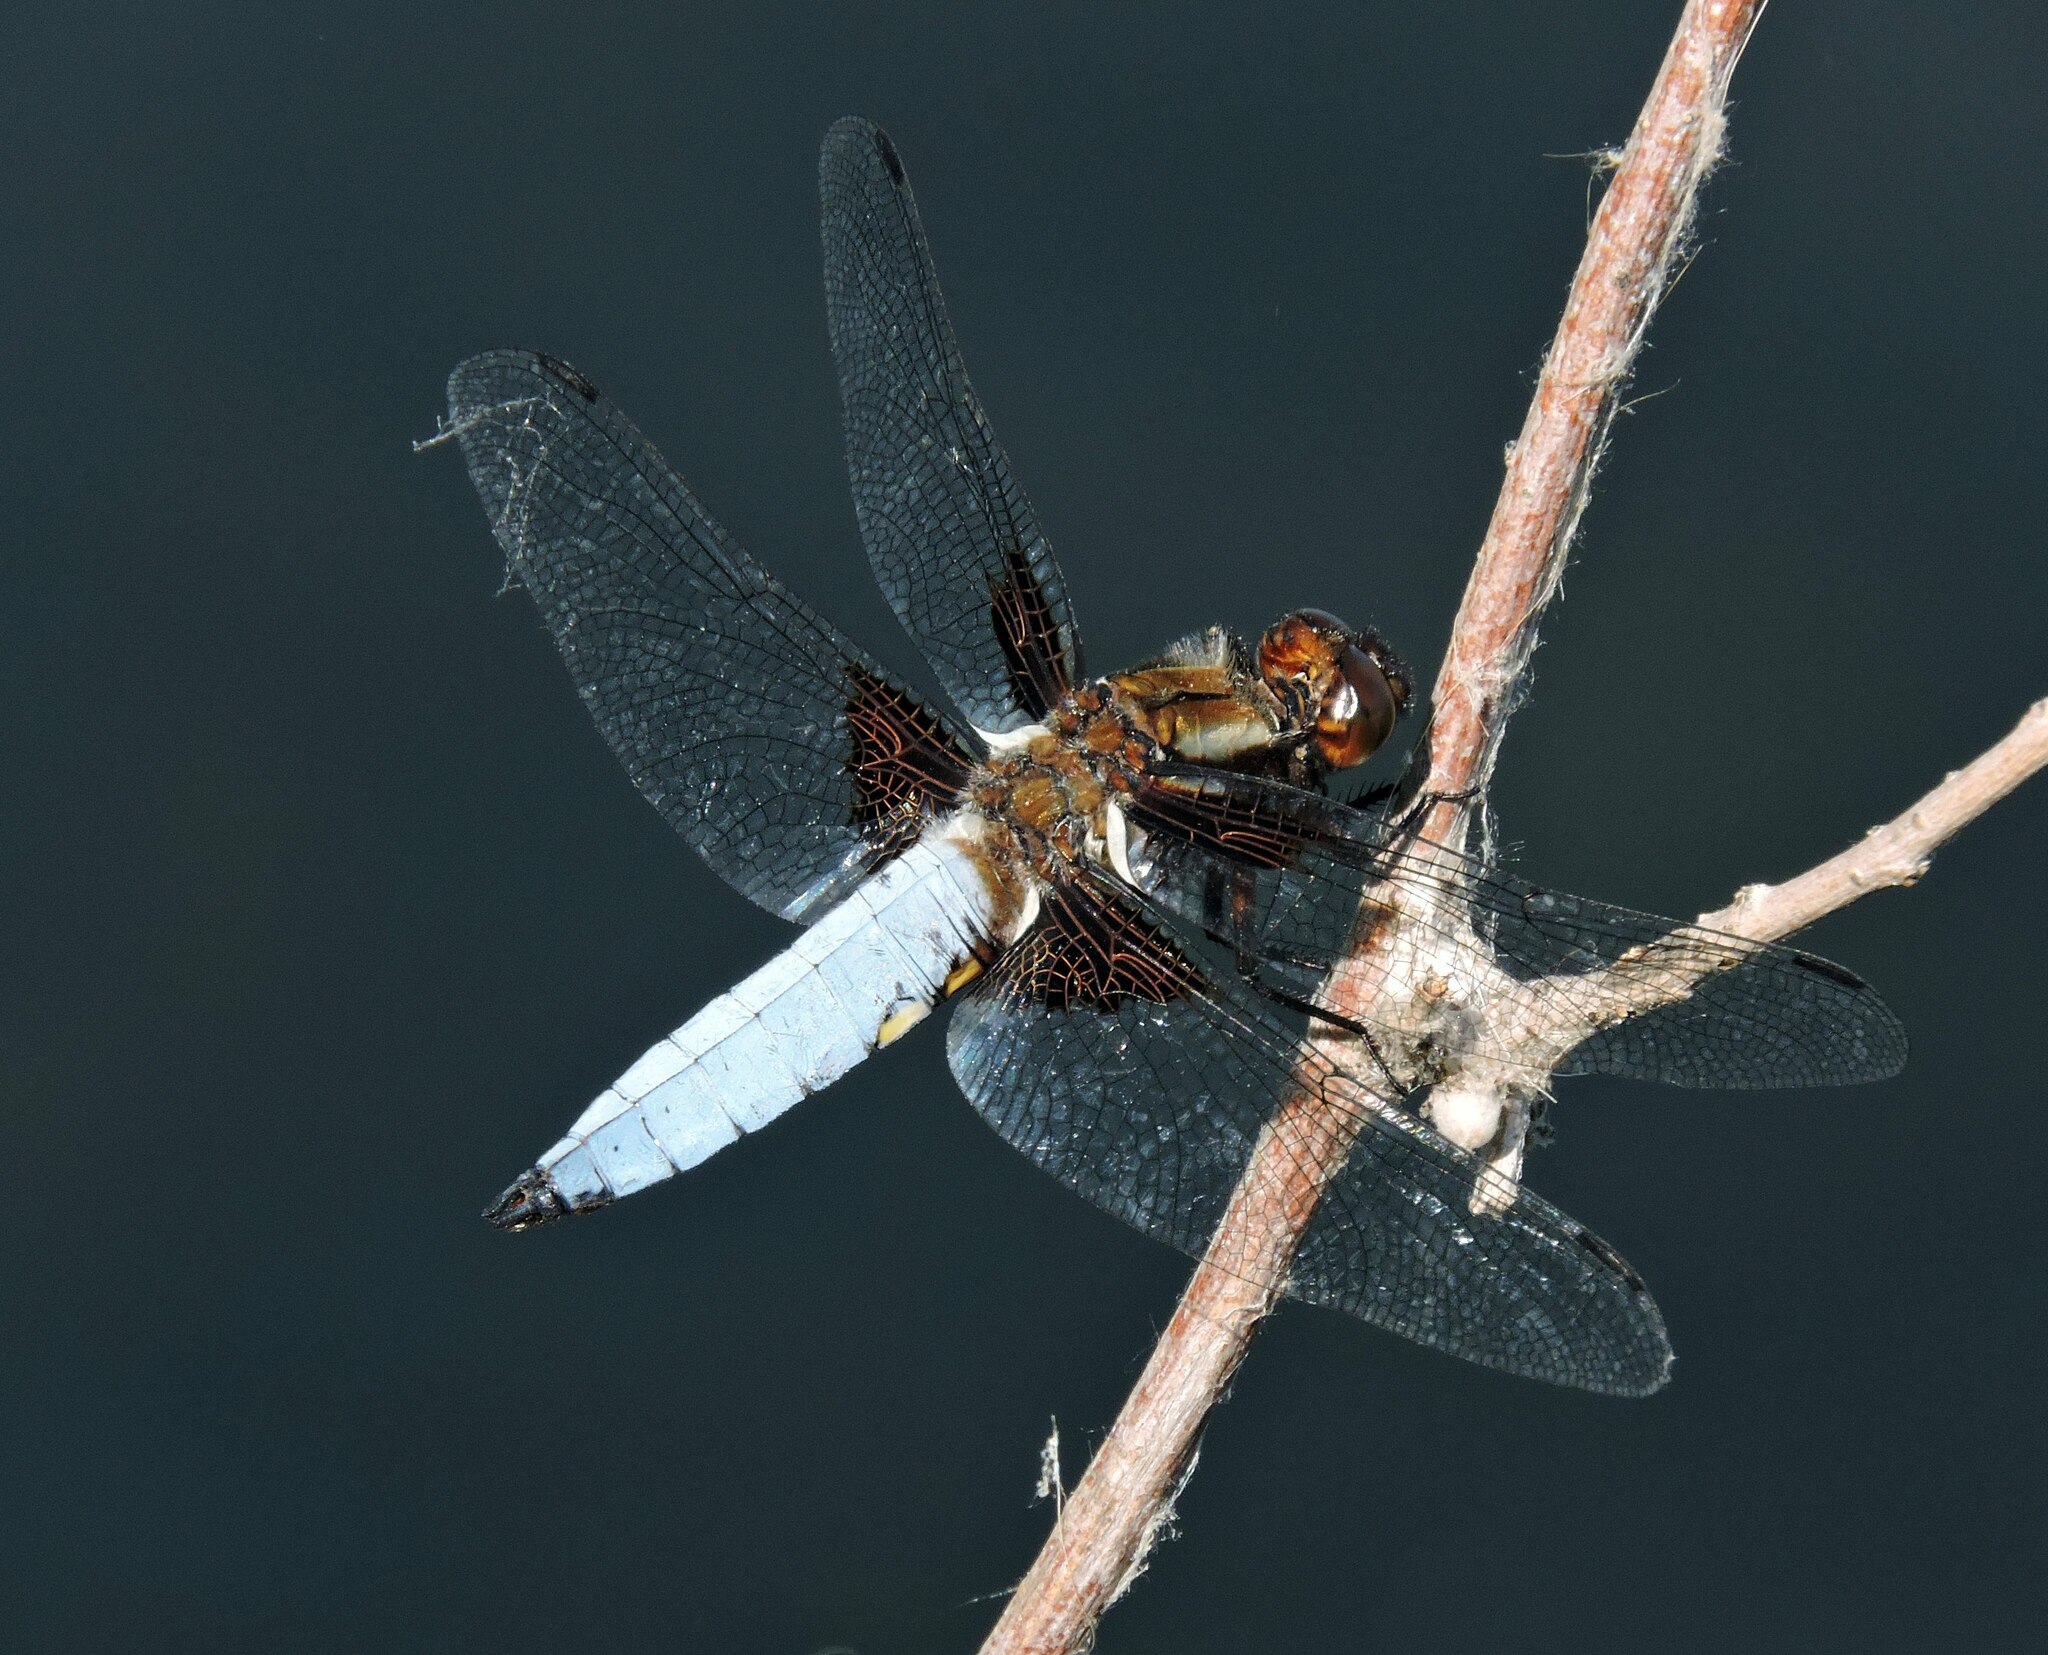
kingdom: Animalia
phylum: Arthropoda
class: Insecta
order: Odonata
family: Libellulidae
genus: Libellula
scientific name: Libellula depressa
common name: Broad-bodied chaser
